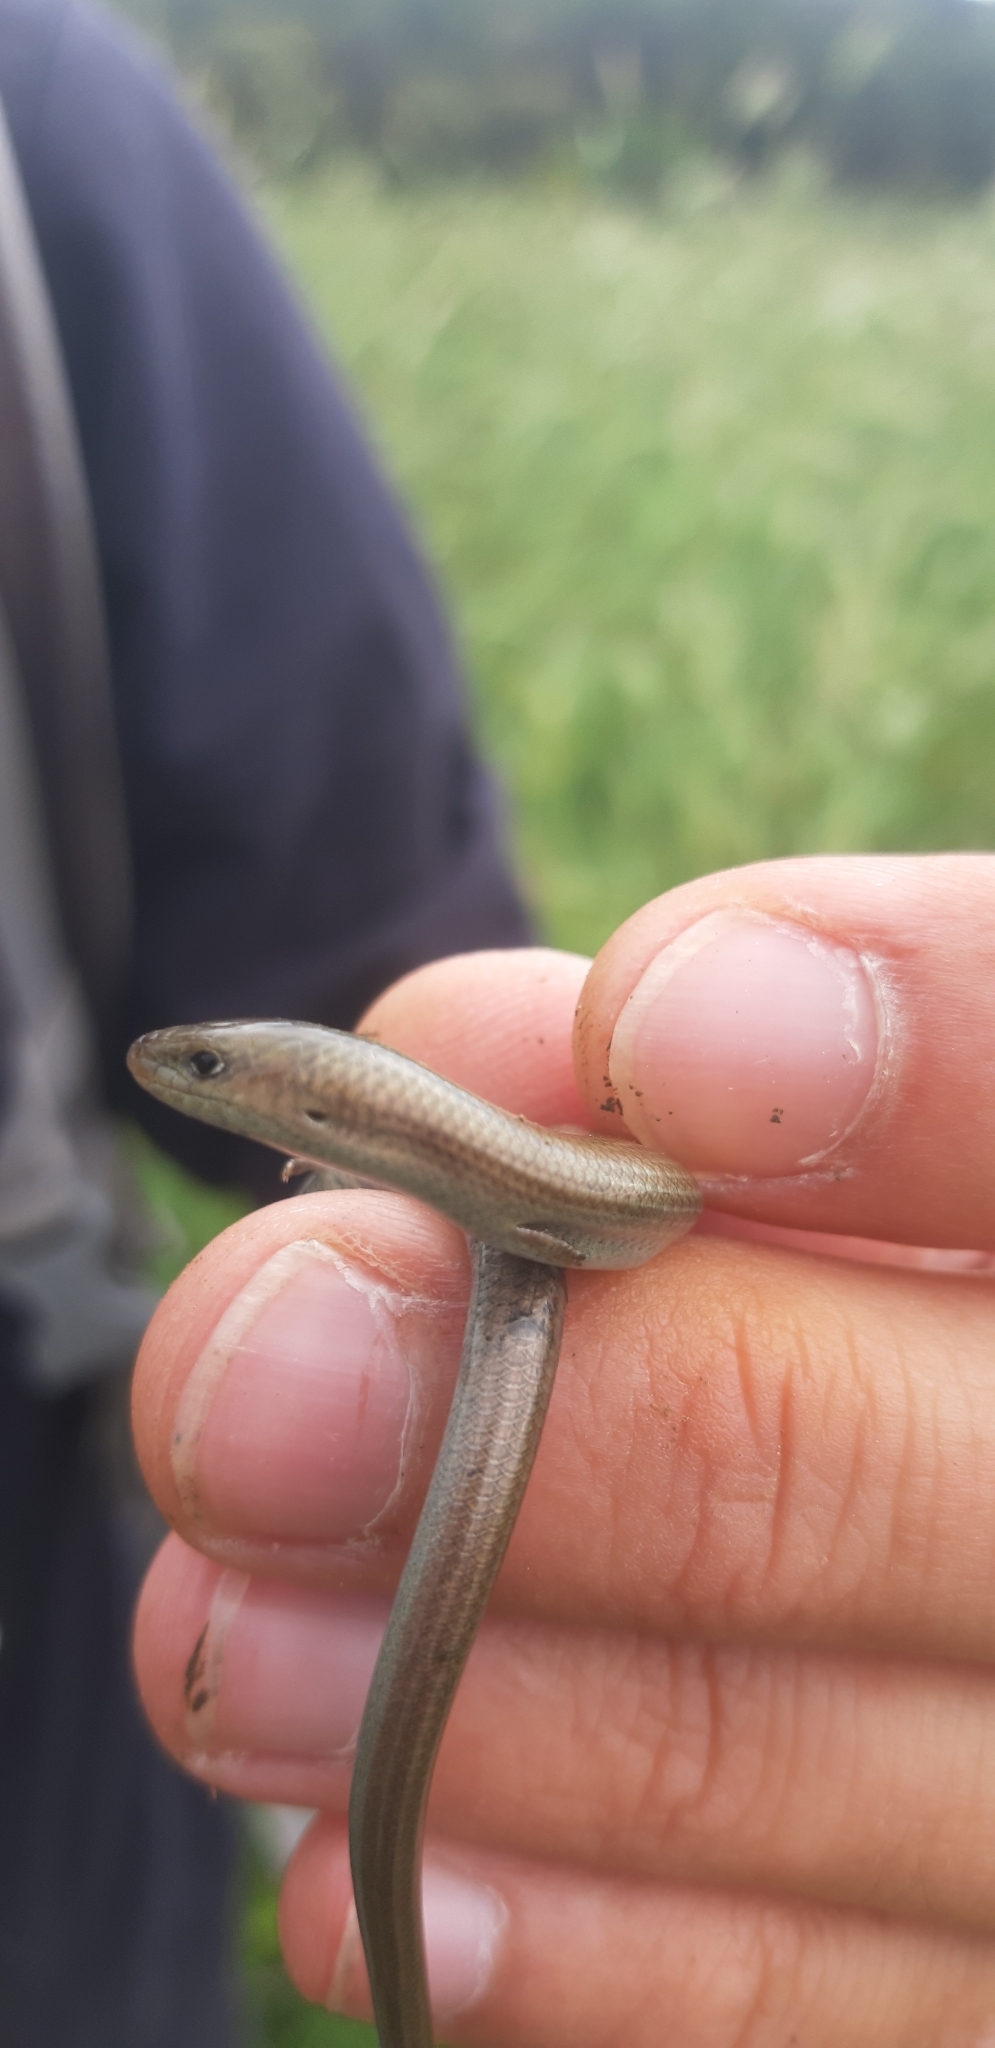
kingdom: Animalia
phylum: Chordata
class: Squamata
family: Scincidae
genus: Chalcides
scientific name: Chalcides chalcides
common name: Italian three-toed skink
